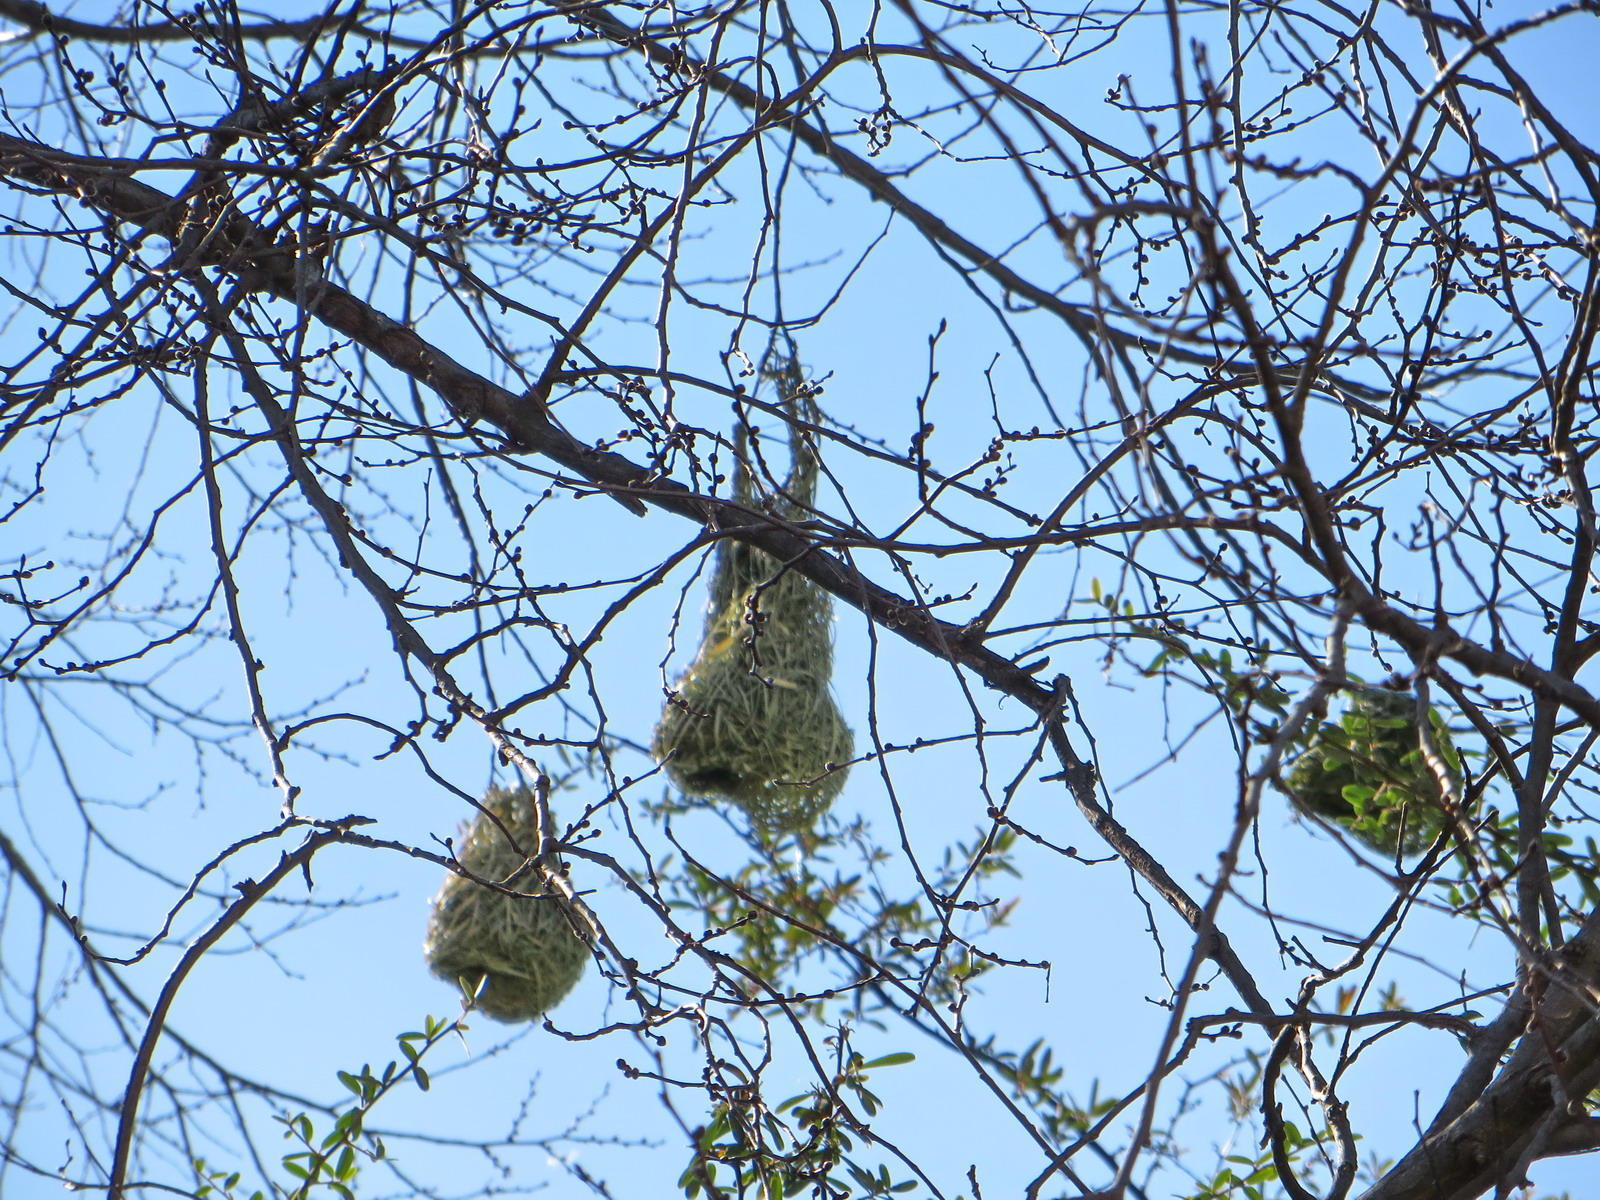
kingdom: Animalia
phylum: Chordata
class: Aves
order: Passeriformes
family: Ploceidae
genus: Ploceus
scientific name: Ploceus velatus
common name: Southern masked weaver
